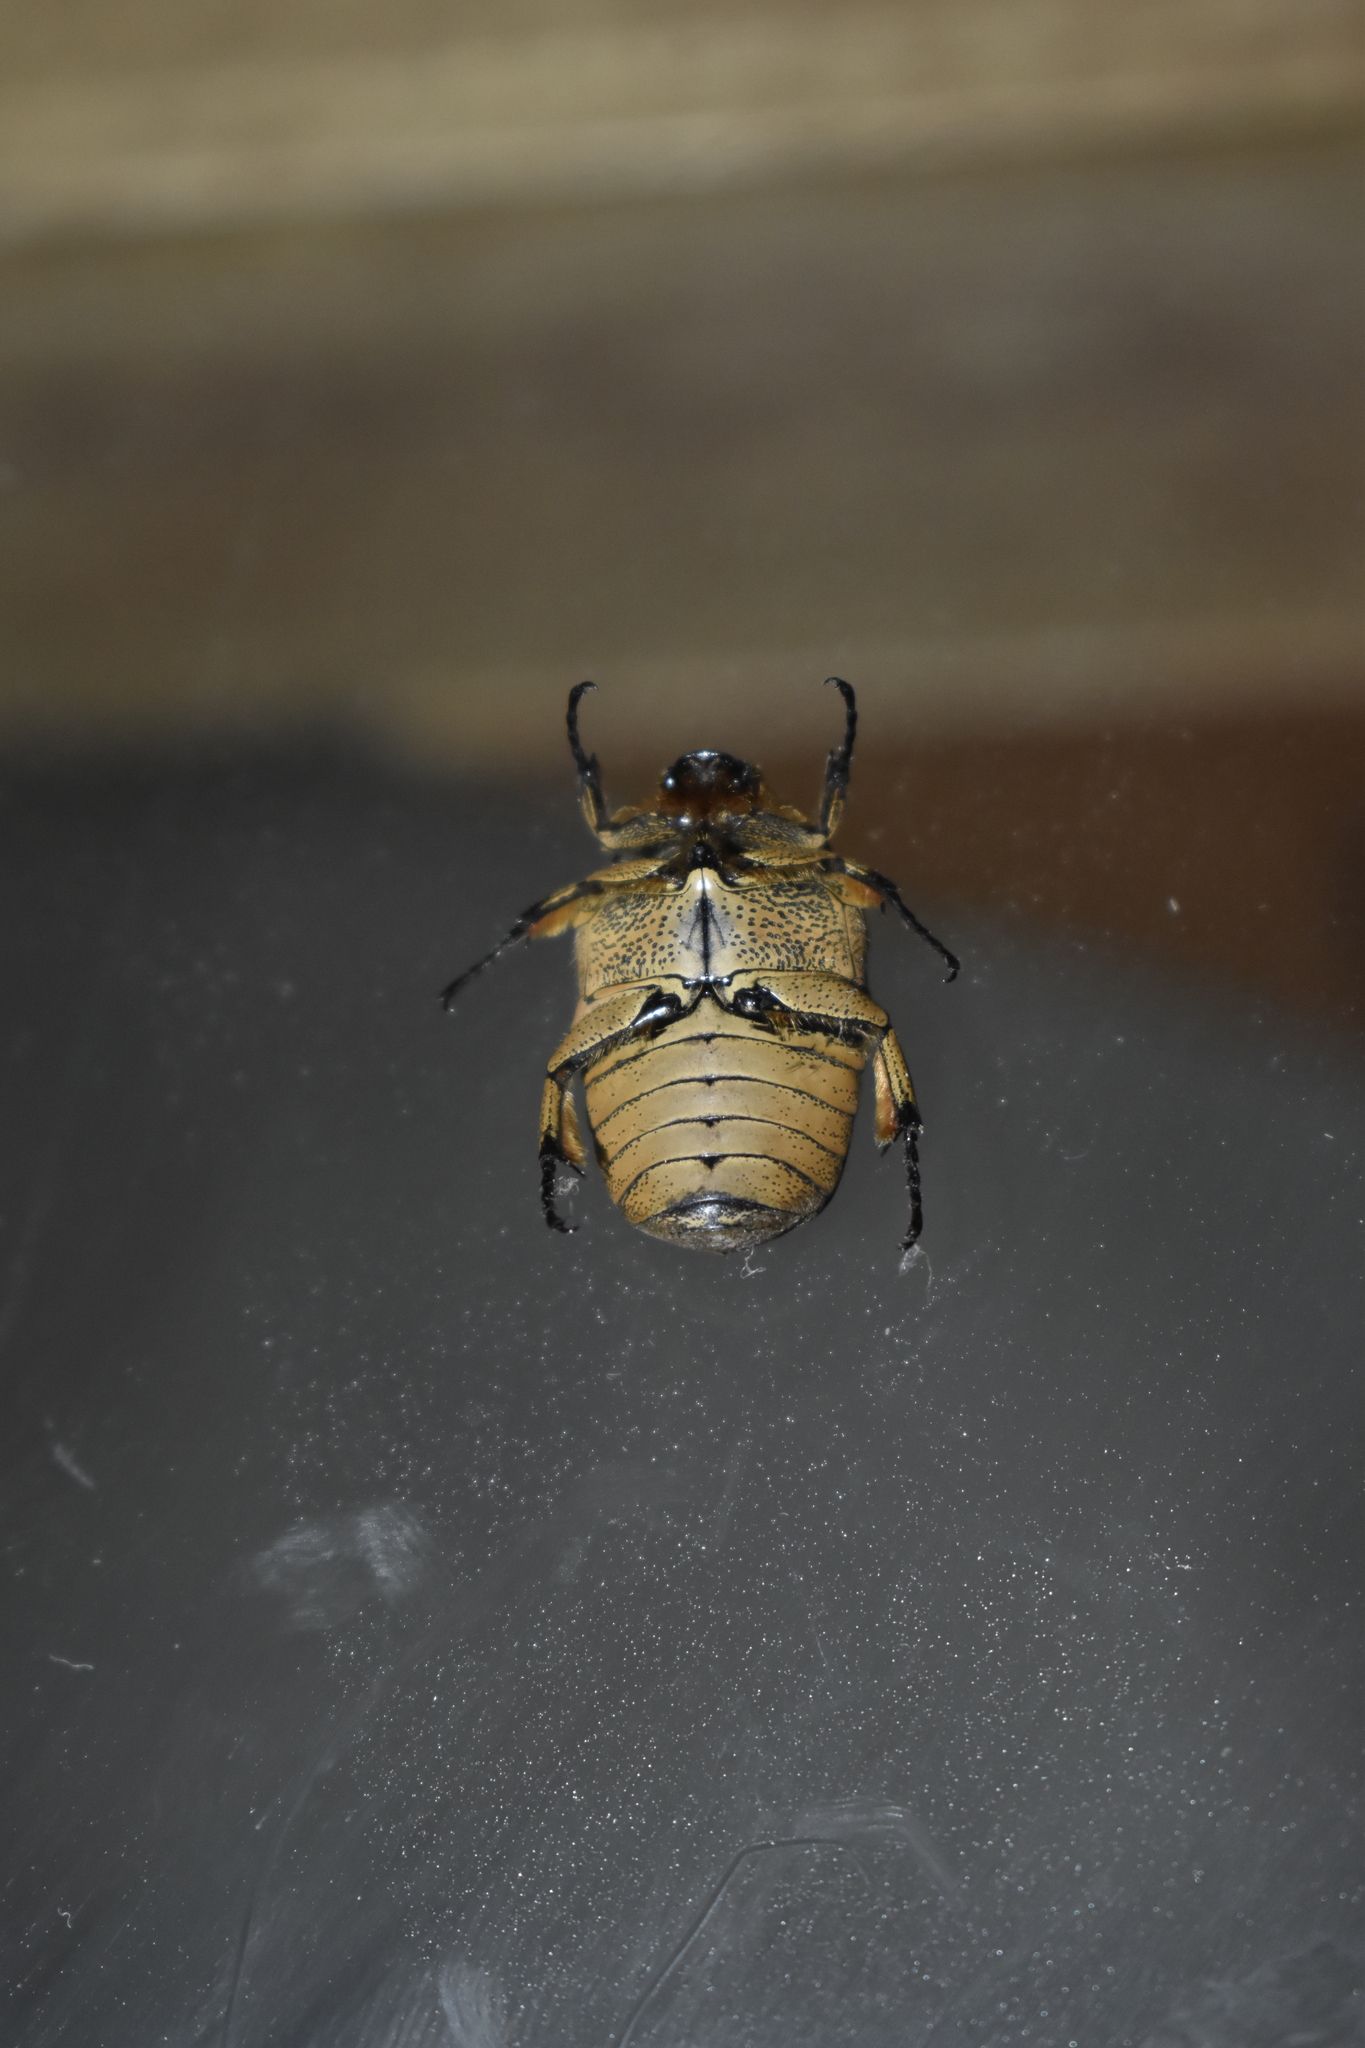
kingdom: Animalia
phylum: Arthropoda
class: Insecta
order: Coleoptera
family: Scarabaeidae
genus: Gymnetis
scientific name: Gymnetis pantherina
